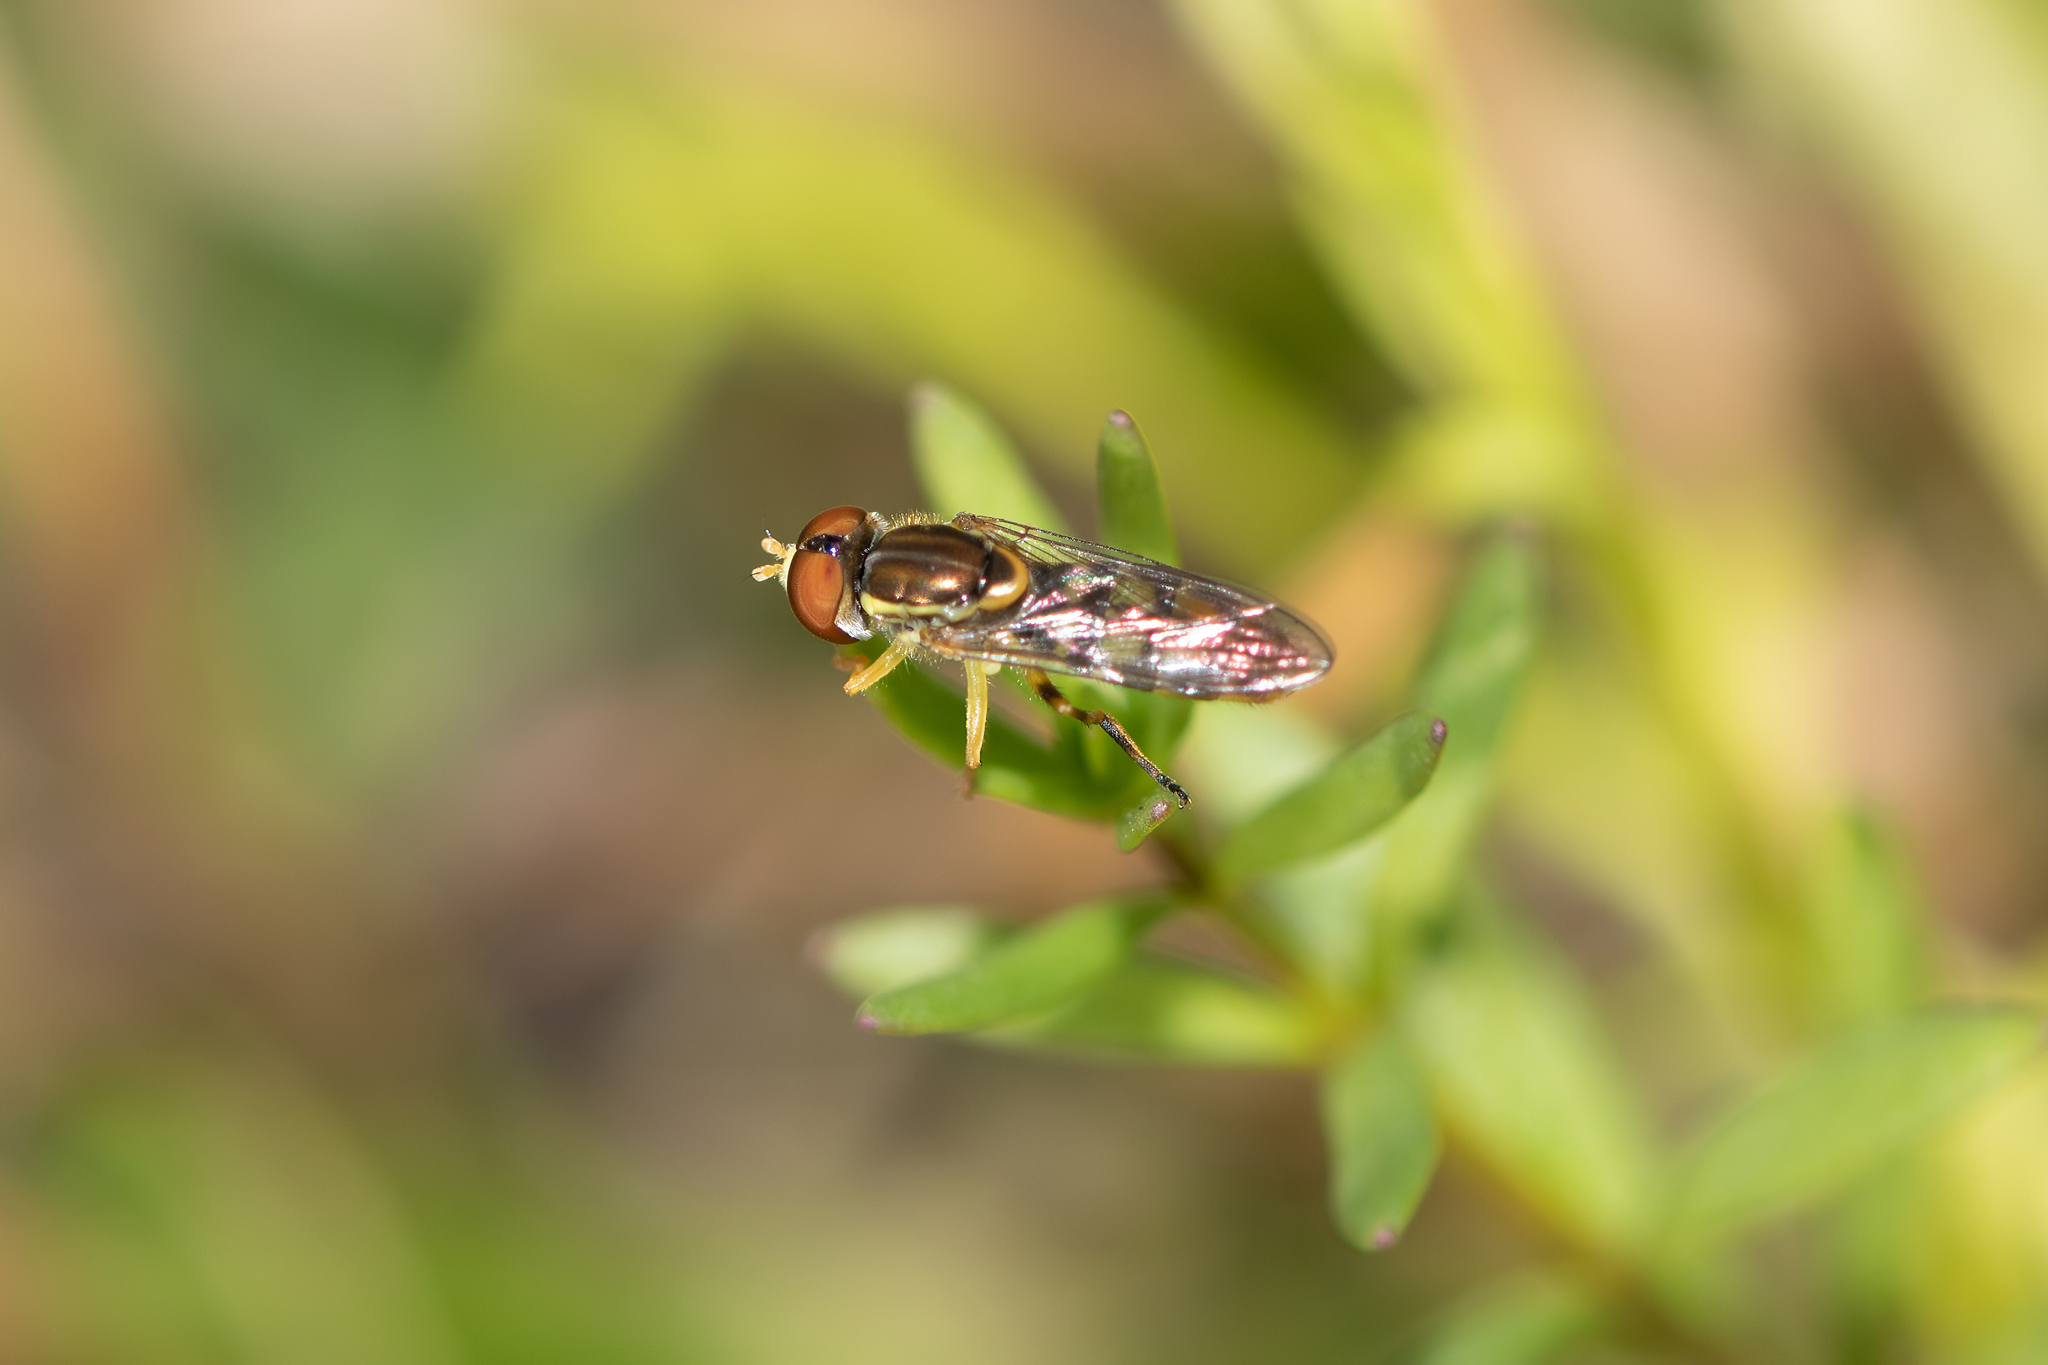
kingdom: Animalia
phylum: Arthropoda
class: Insecta
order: Diptera
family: Syrphidae
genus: Toxomerus
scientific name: Toxomerus floralis
